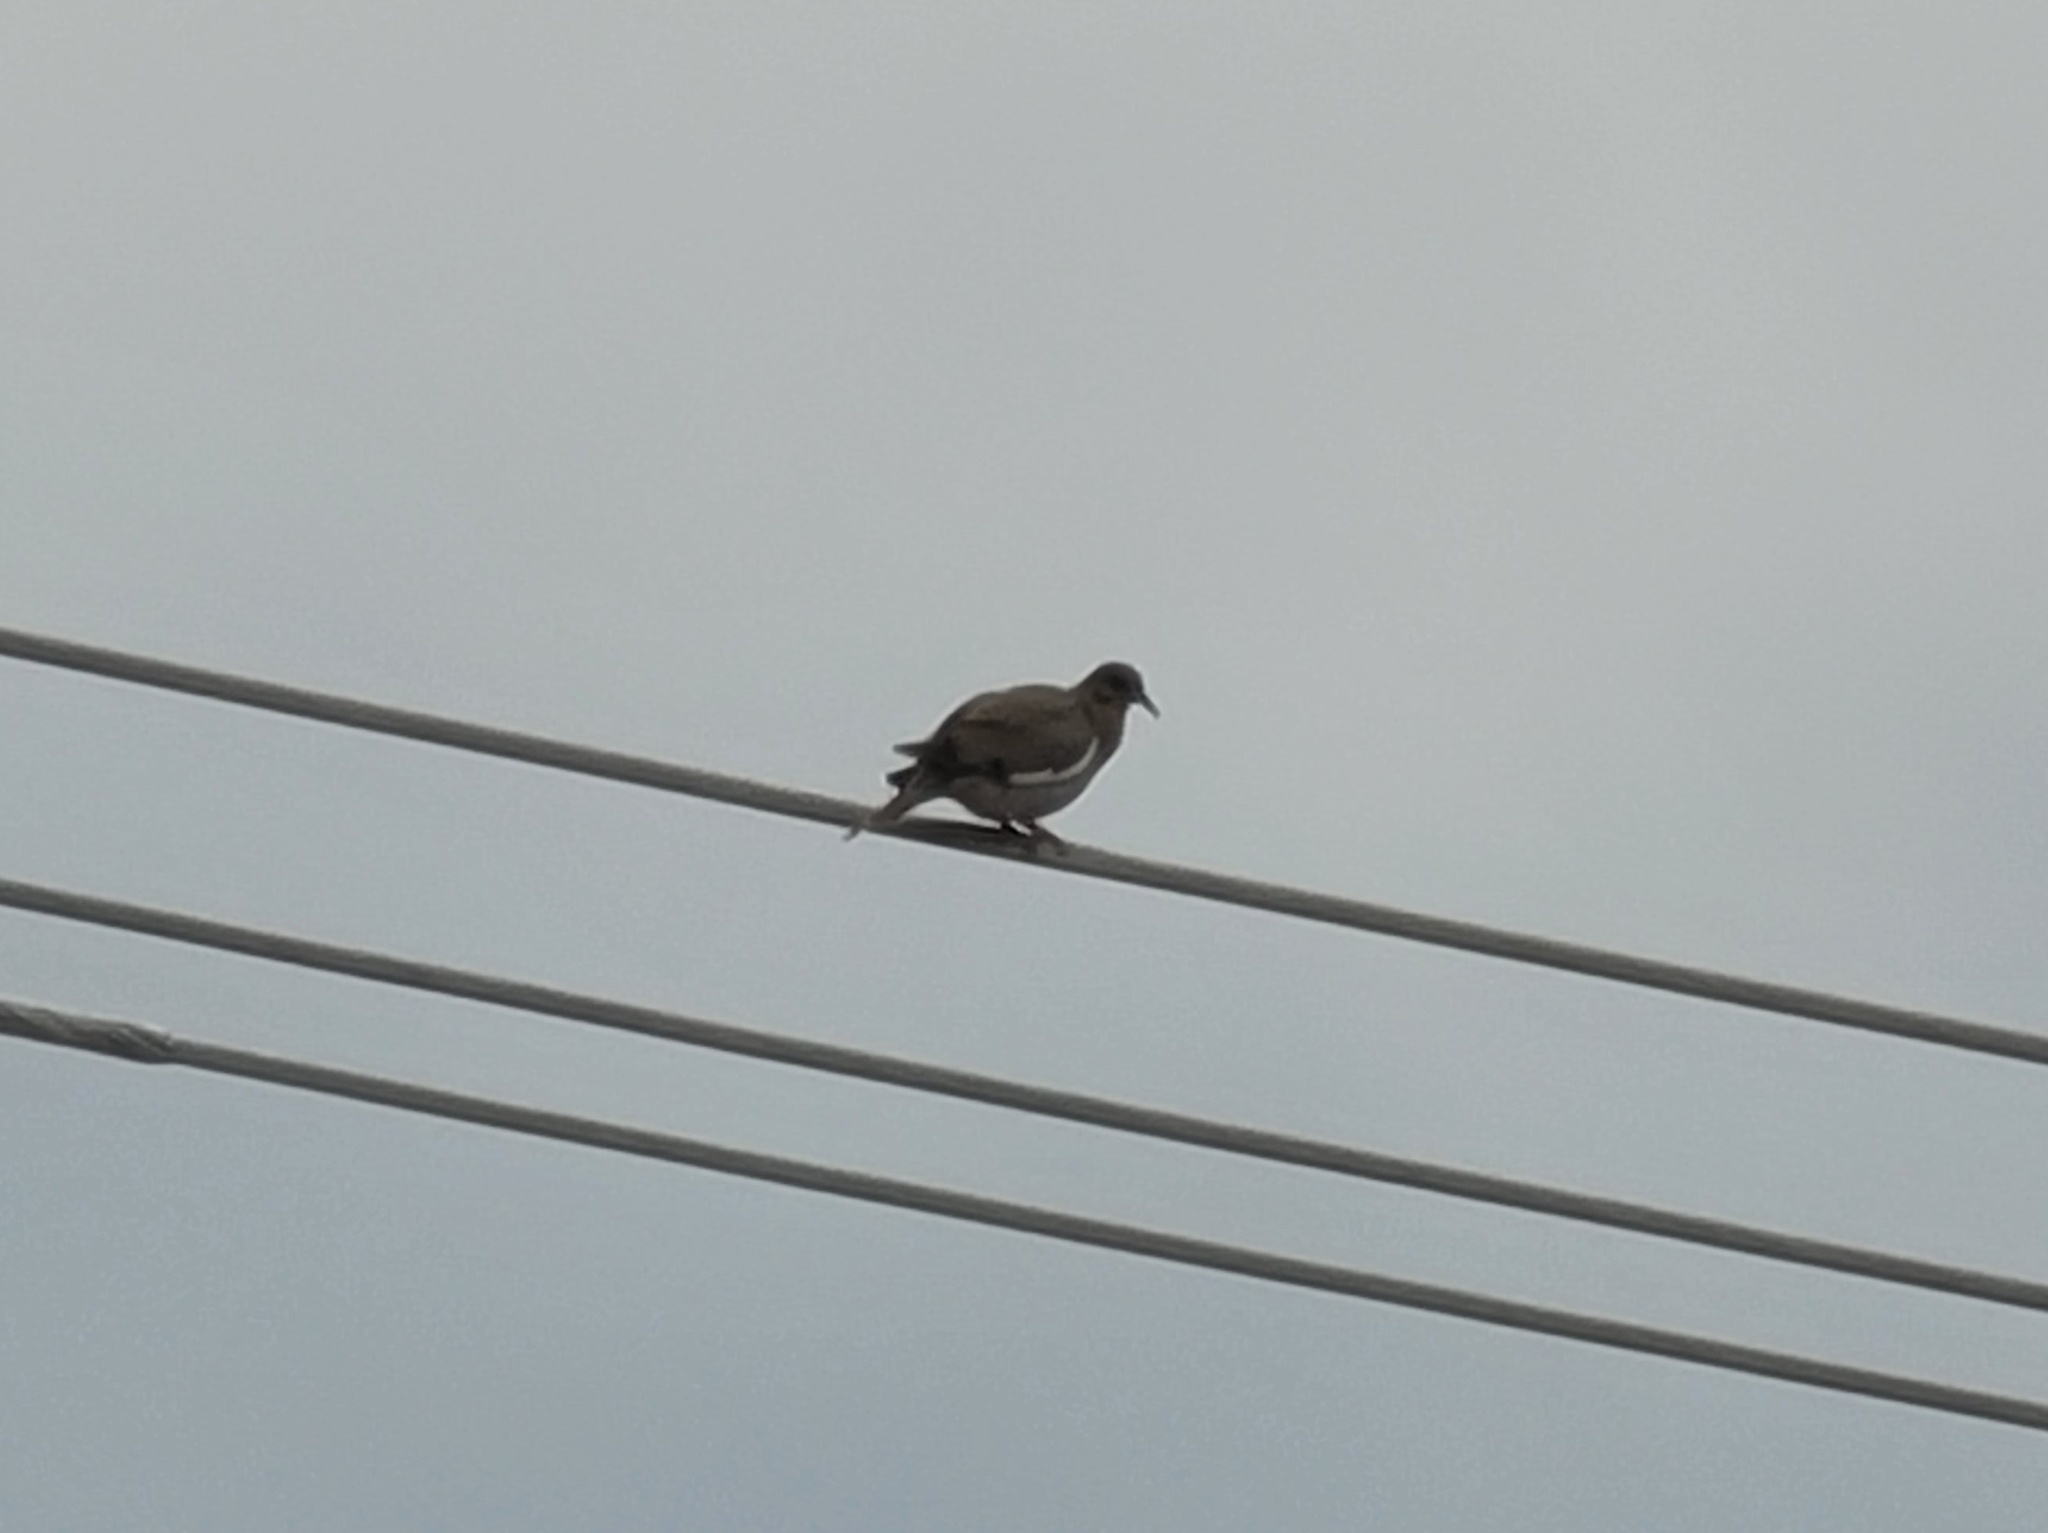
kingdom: Animalia
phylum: Chordata
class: Aves
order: Columbiformes
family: Columbidae
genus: Zenaida
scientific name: Zenaida asiatica
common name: White-winged dove
